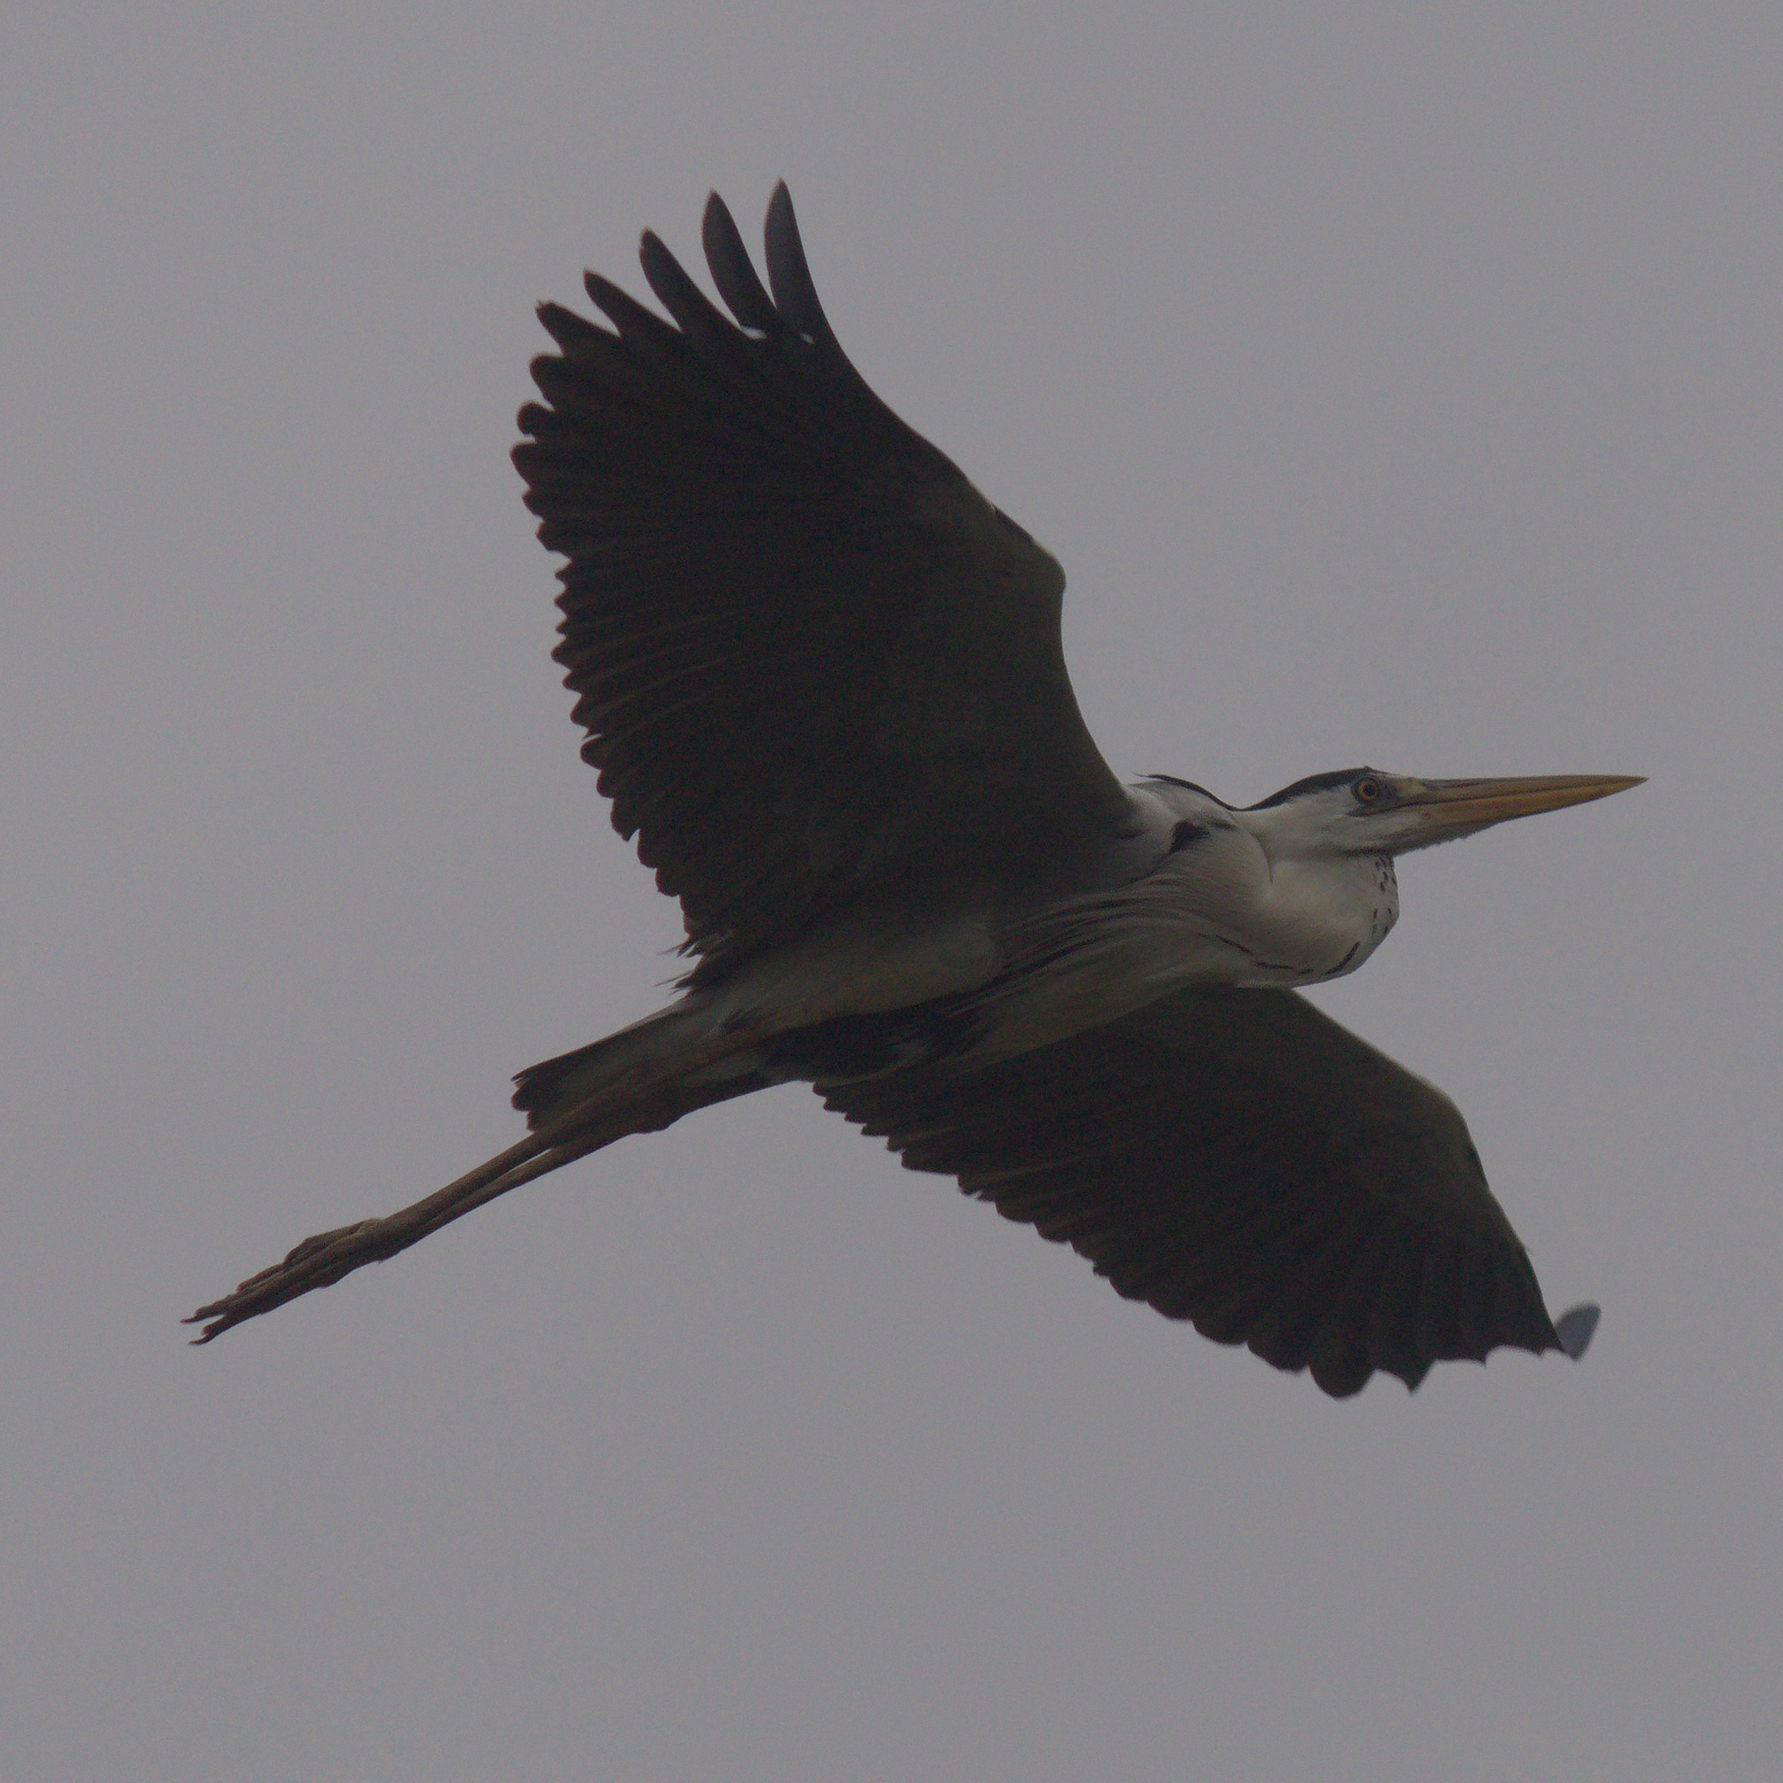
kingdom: Animalia
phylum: Chordata
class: Aves
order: Pelecaniformes
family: Ardeidae
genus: Ardea
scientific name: Ardea cinerea
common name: Grey heron
